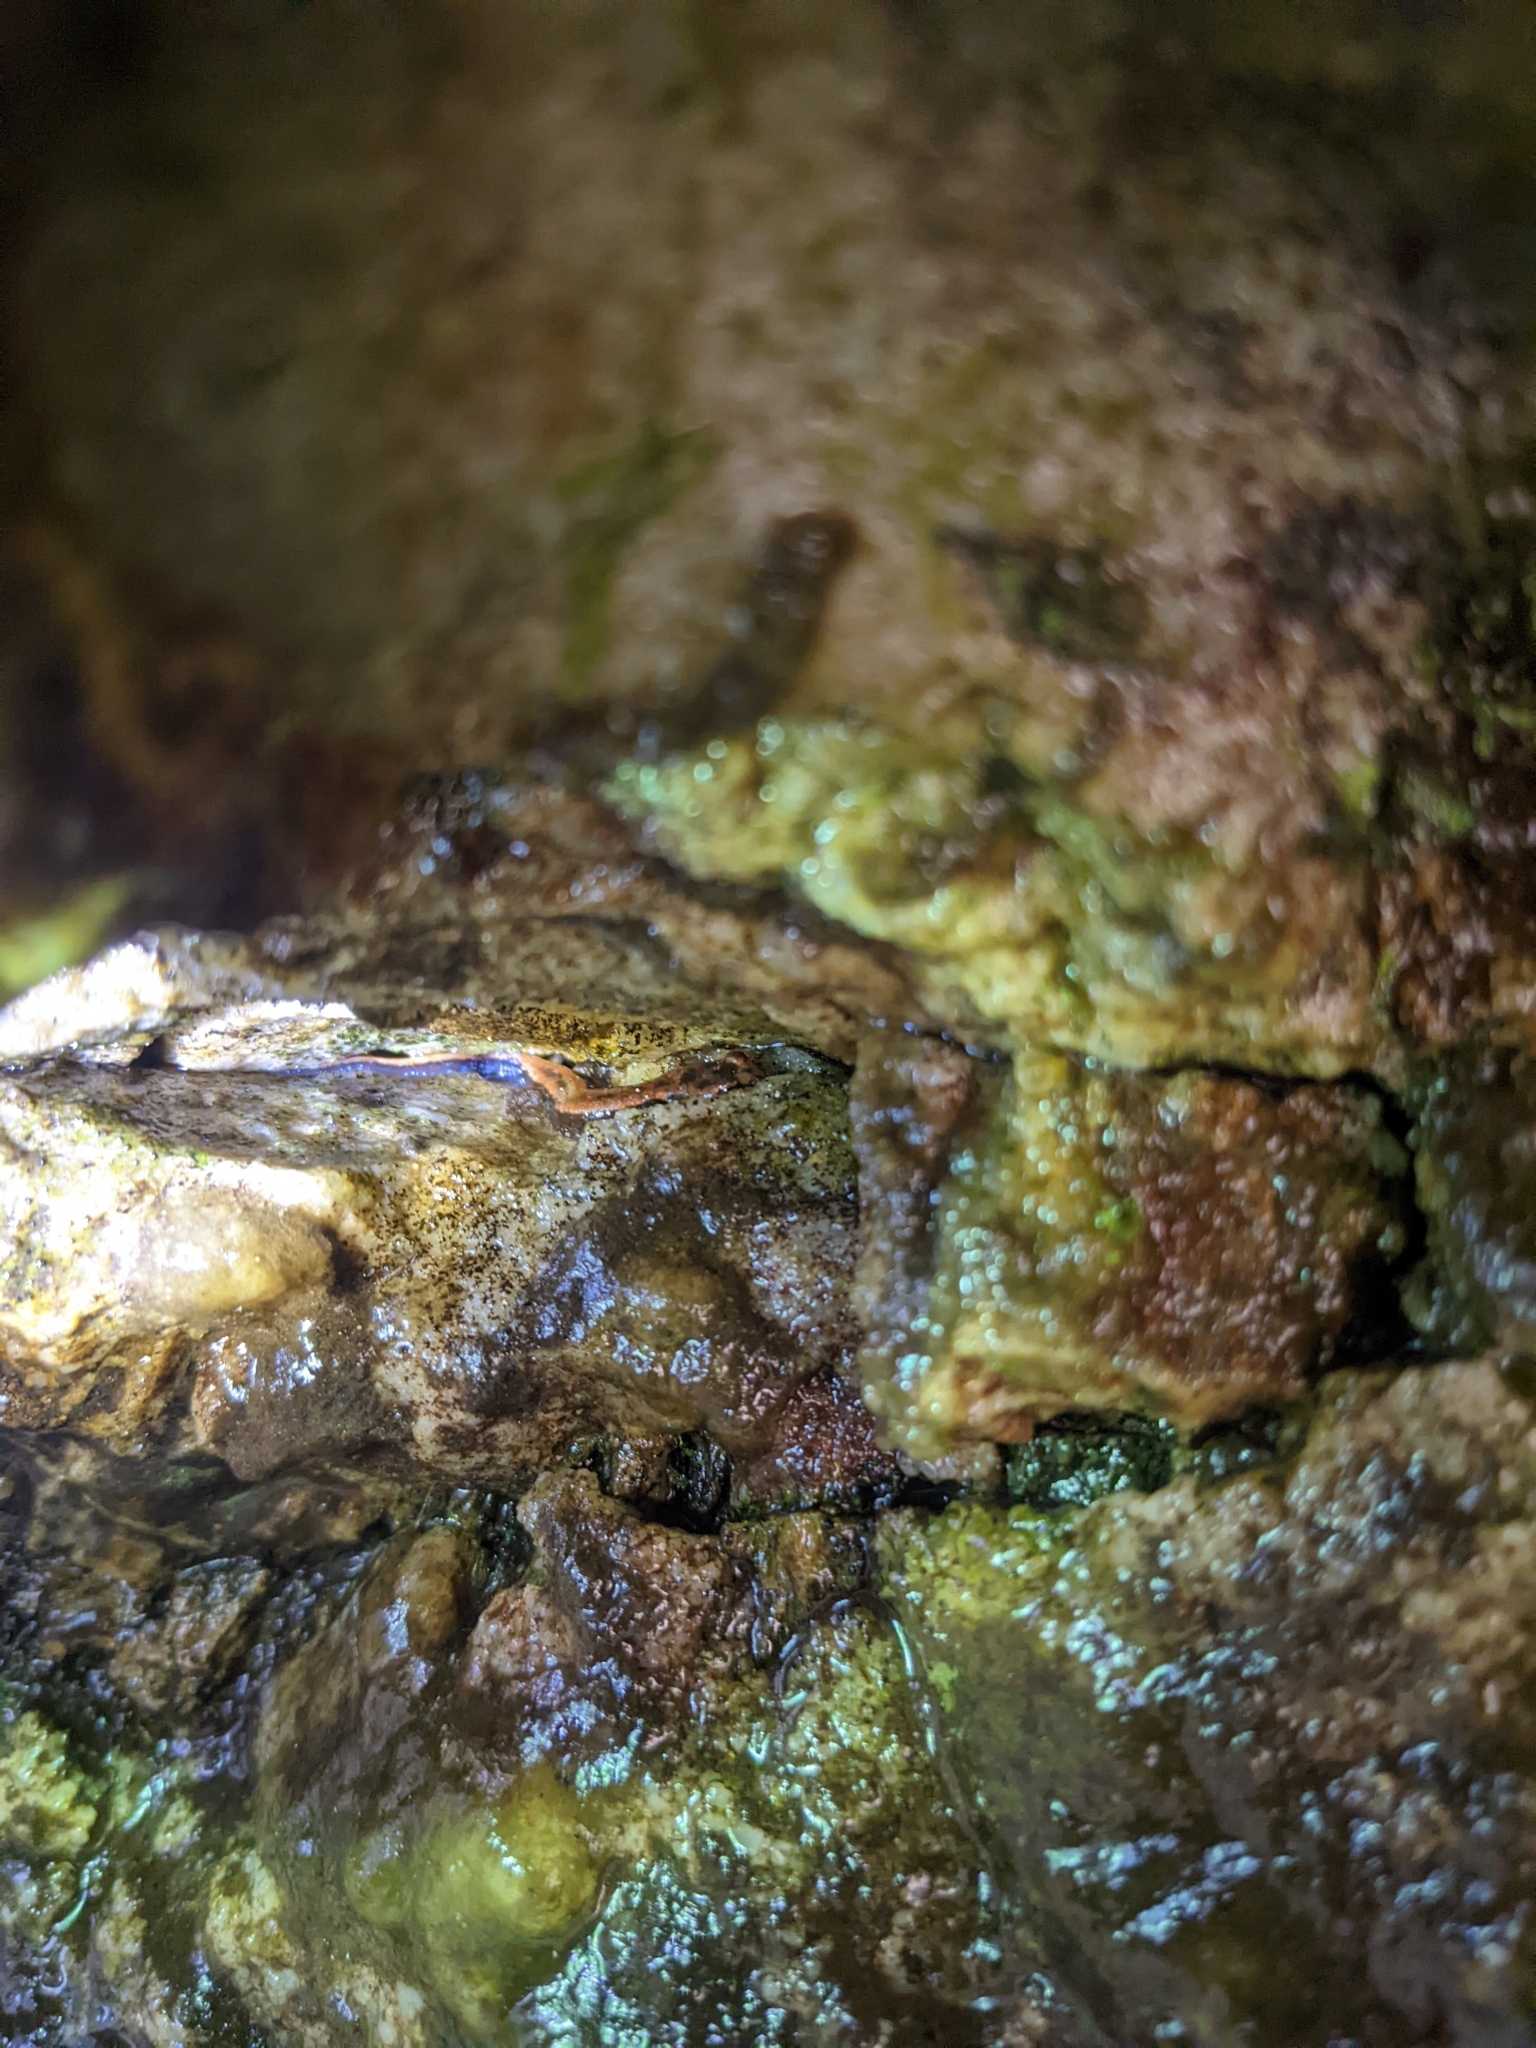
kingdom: Animalia
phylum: Chordata
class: Amphibia
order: Caudata
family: Plethodontidae
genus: Desmognathus
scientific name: Desmognathus ochrophaeus
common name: Allegheny mountain dusky salamander
